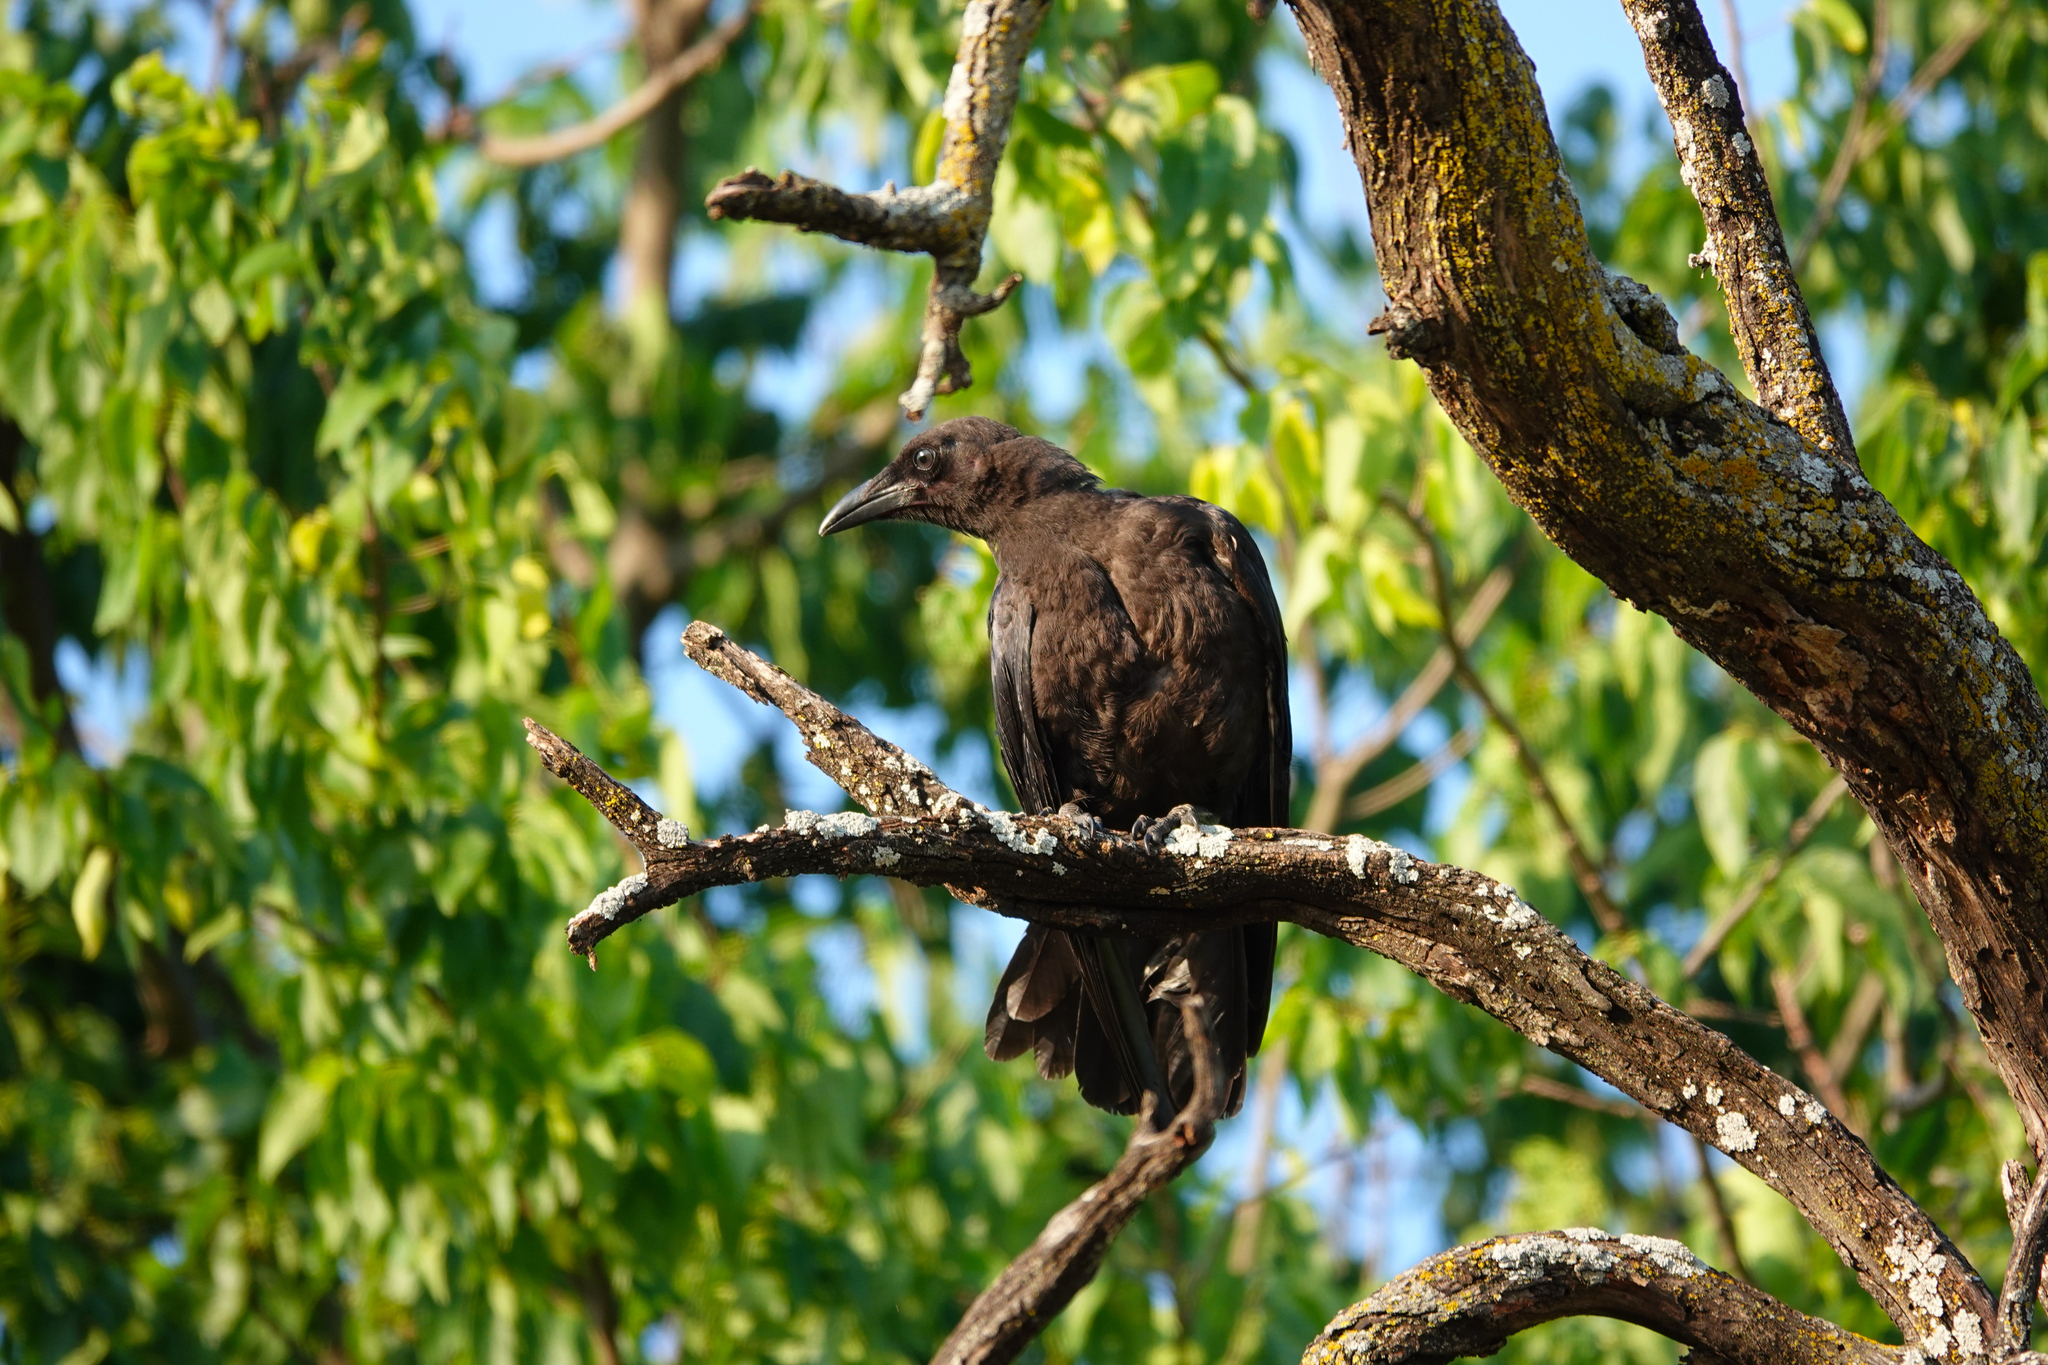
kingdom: Animalia
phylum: Chordata
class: Aves
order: Passeriformes
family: Corvidae
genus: Corvus
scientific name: Corvus brachyrhynchos
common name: American crow
